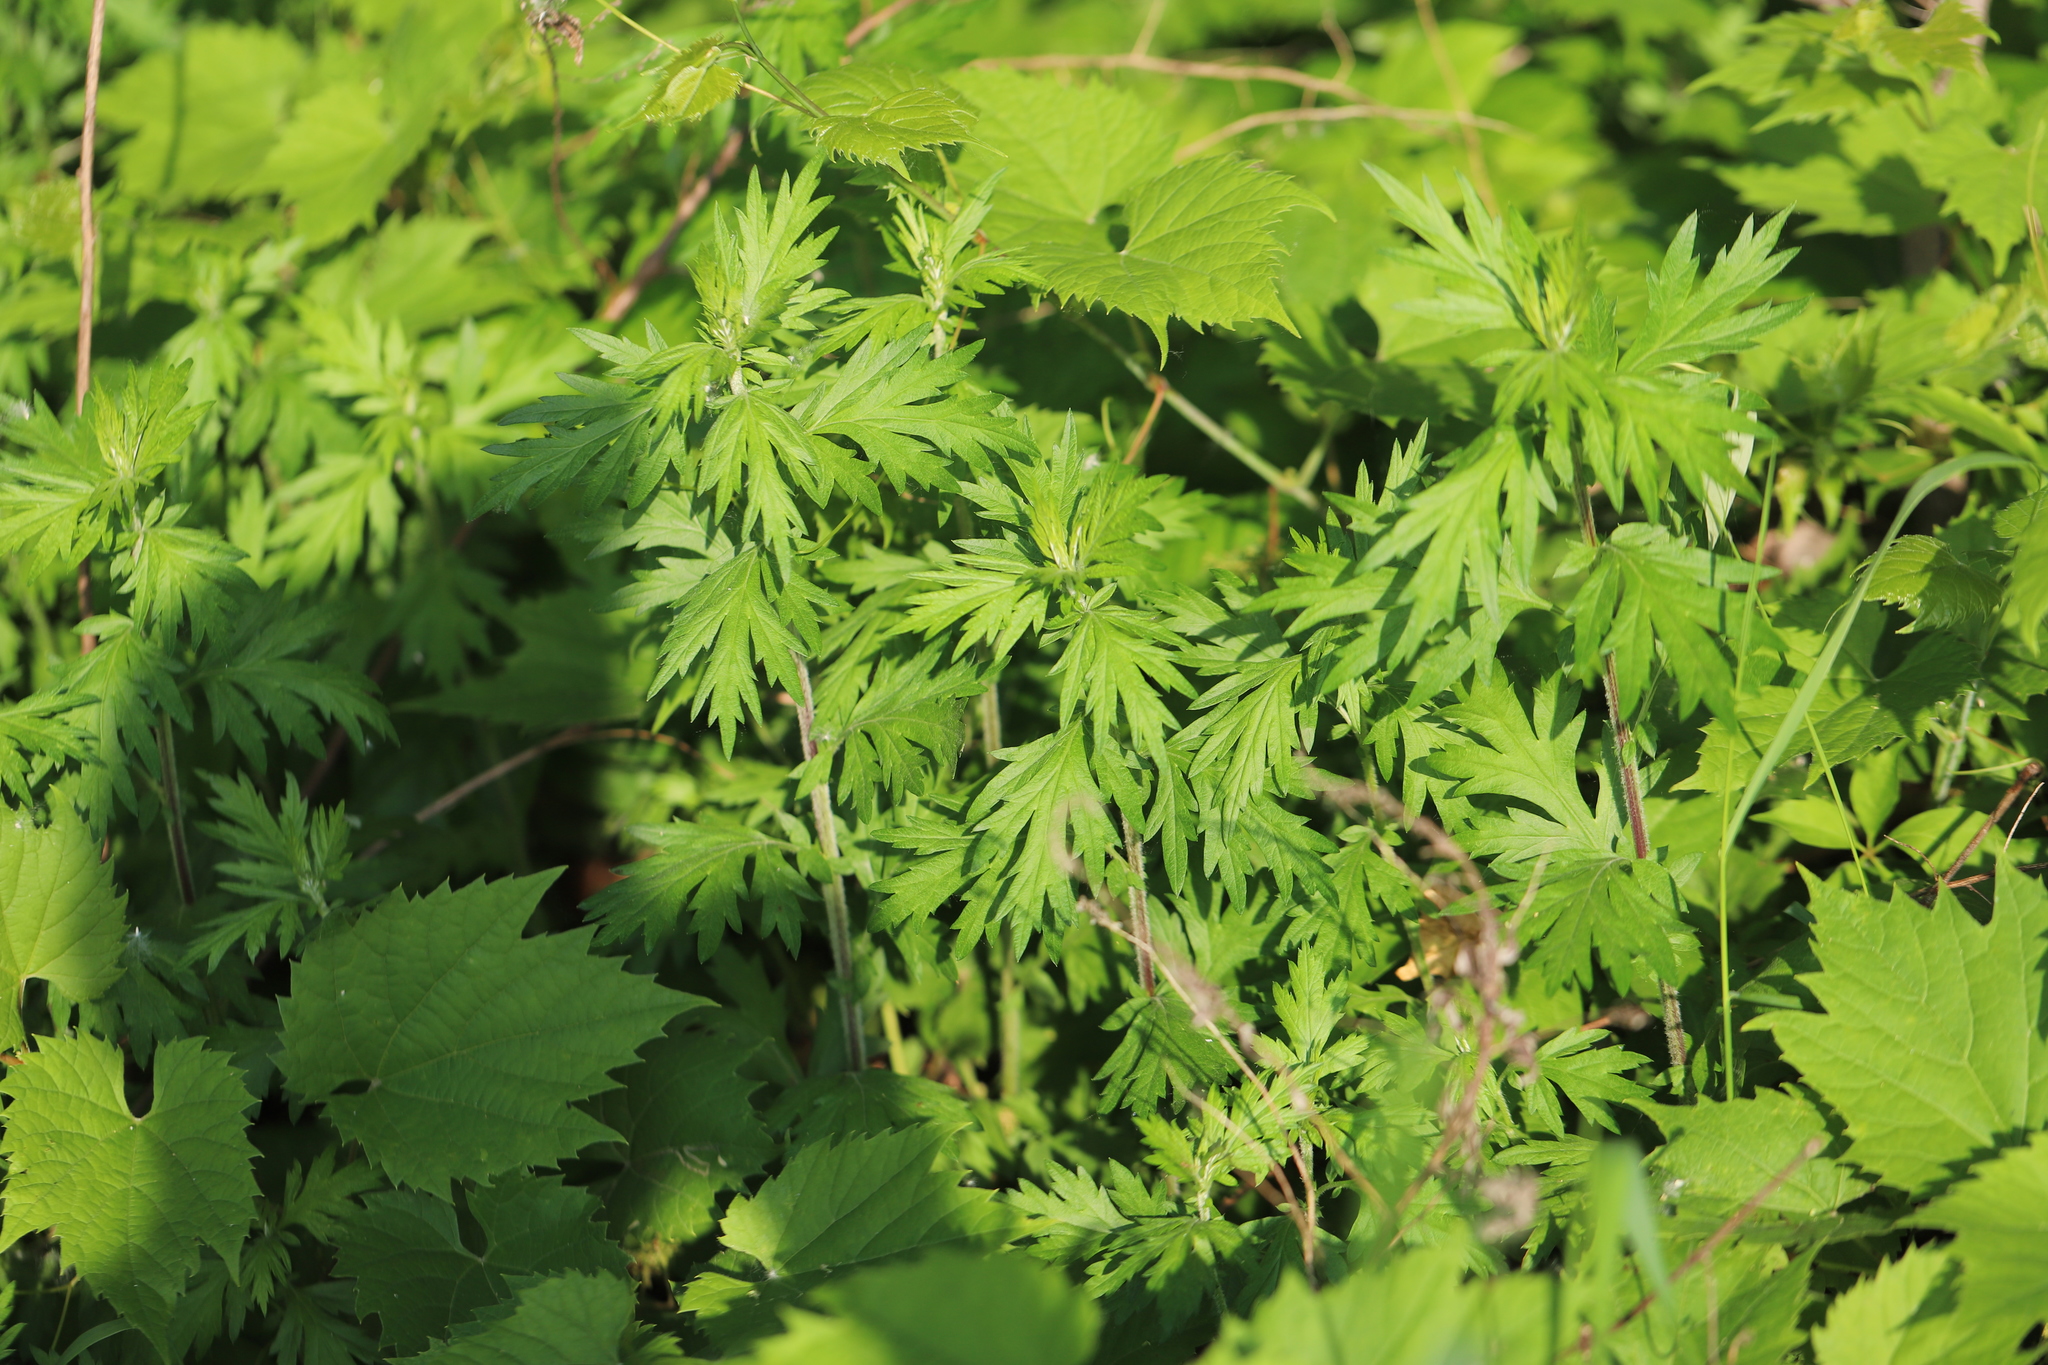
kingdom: Plantae
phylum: Tracheophyta
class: Magnoliopsida
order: Asterales
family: Asteraceae
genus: Artemisia
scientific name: Artemisia vulgaris
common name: Mugwort
